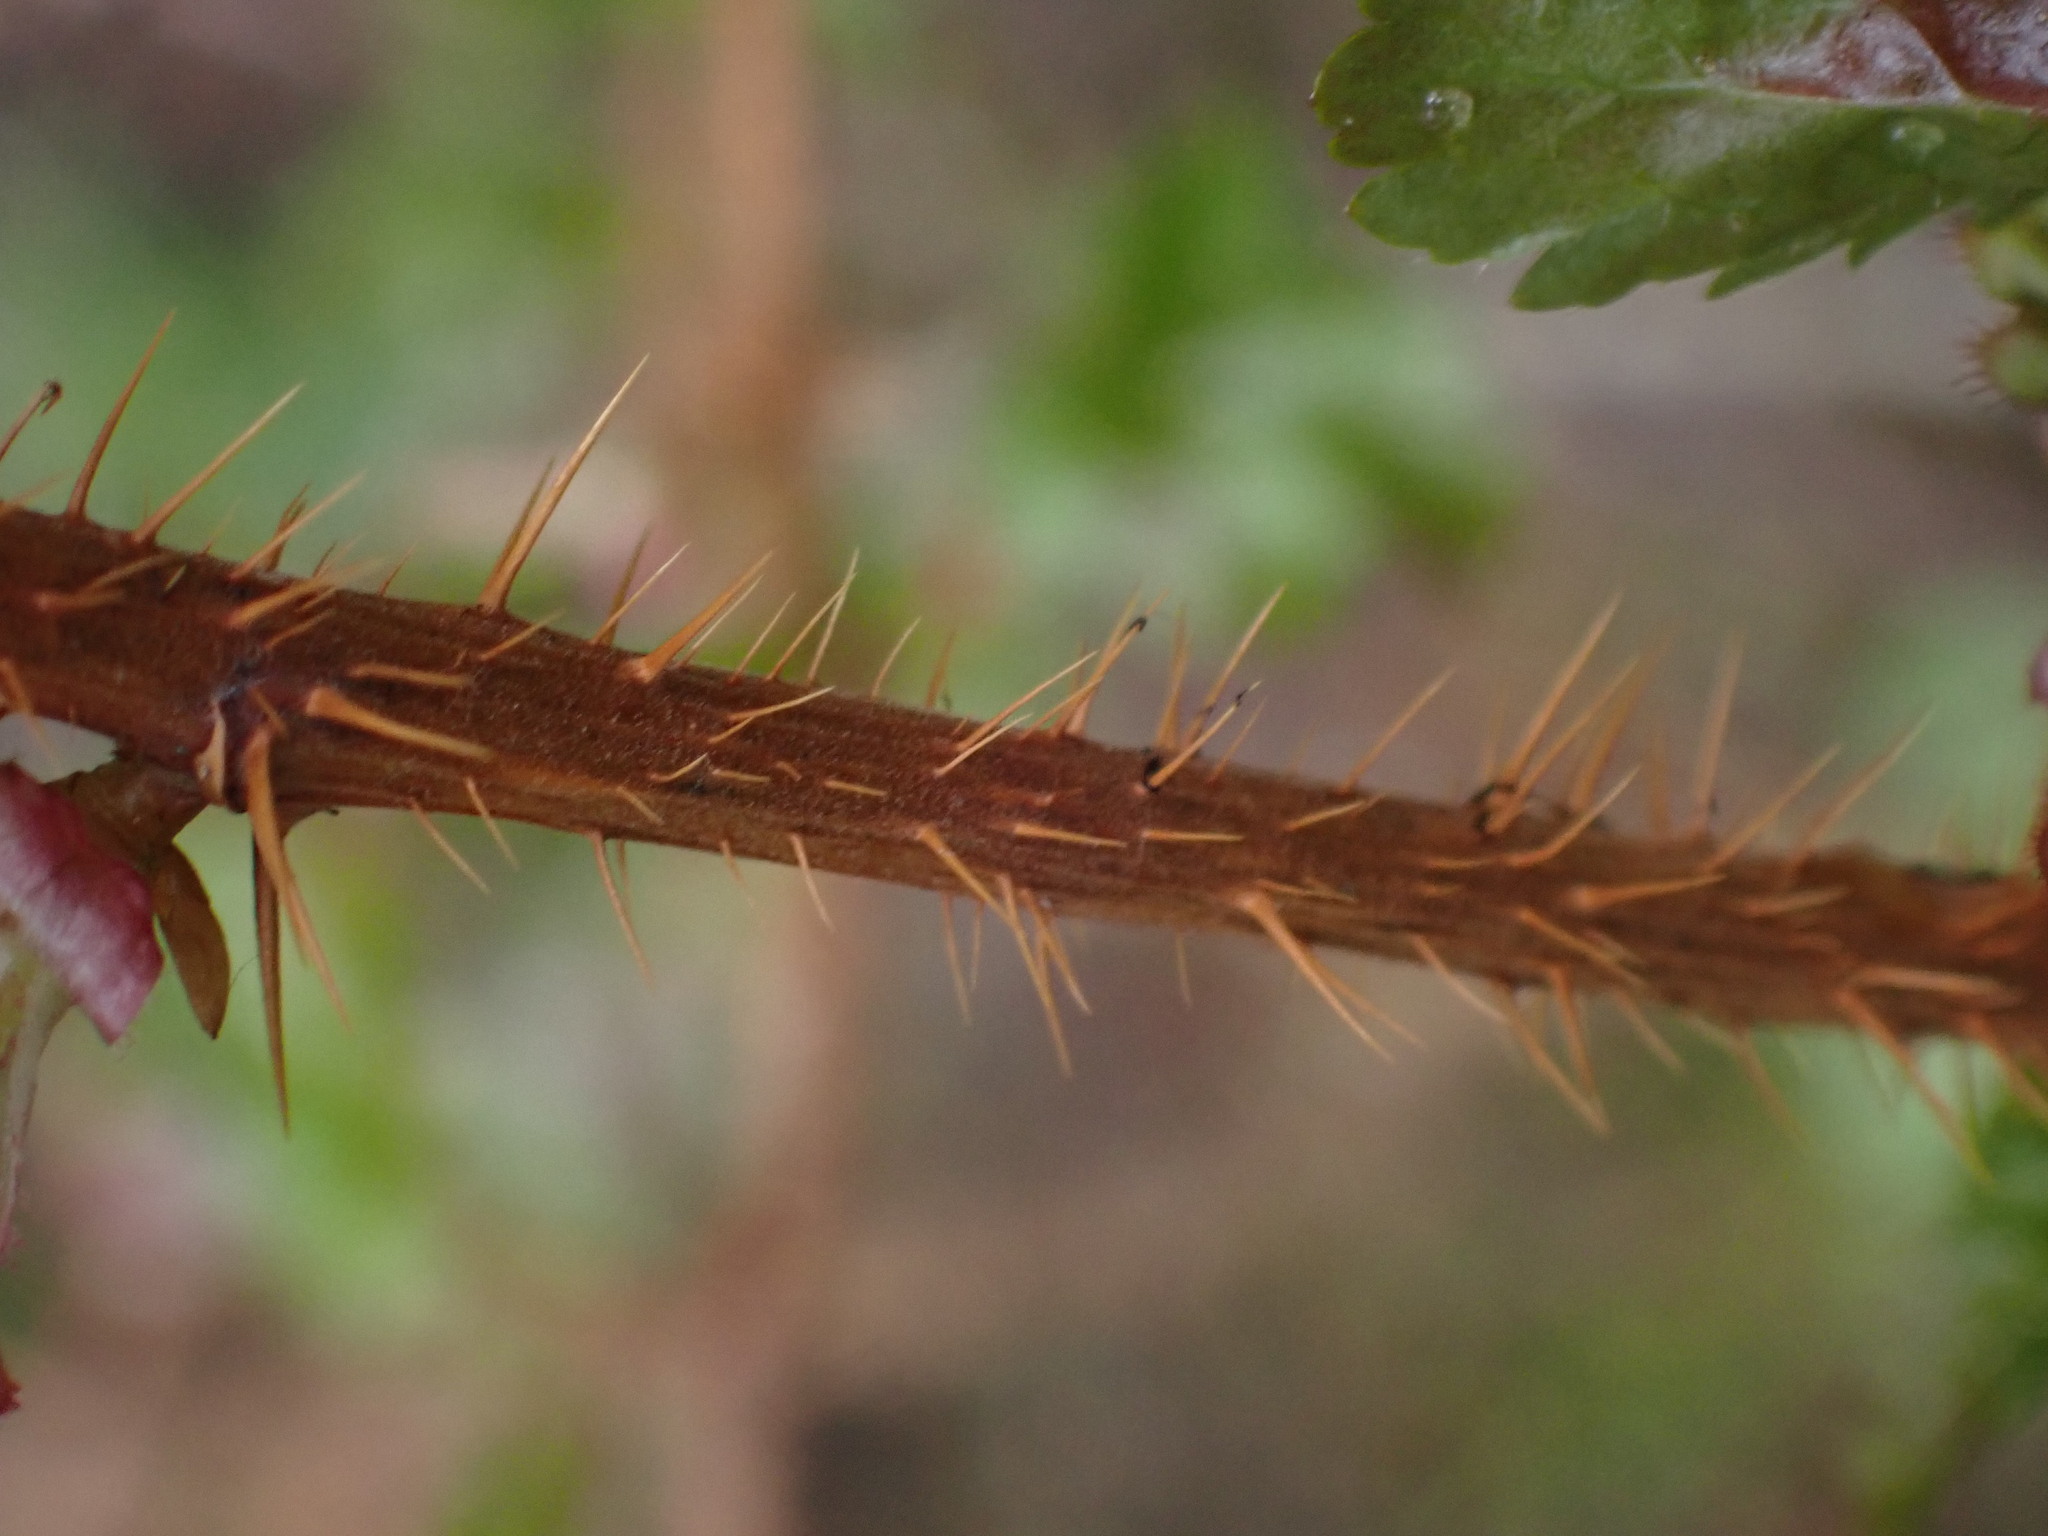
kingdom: Plantae
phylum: Tracheophyta
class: Magnoliopsida
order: Saxifragales
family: Grossulariaceae
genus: Ribes
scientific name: Ribes lacustre
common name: Black gooseberry
